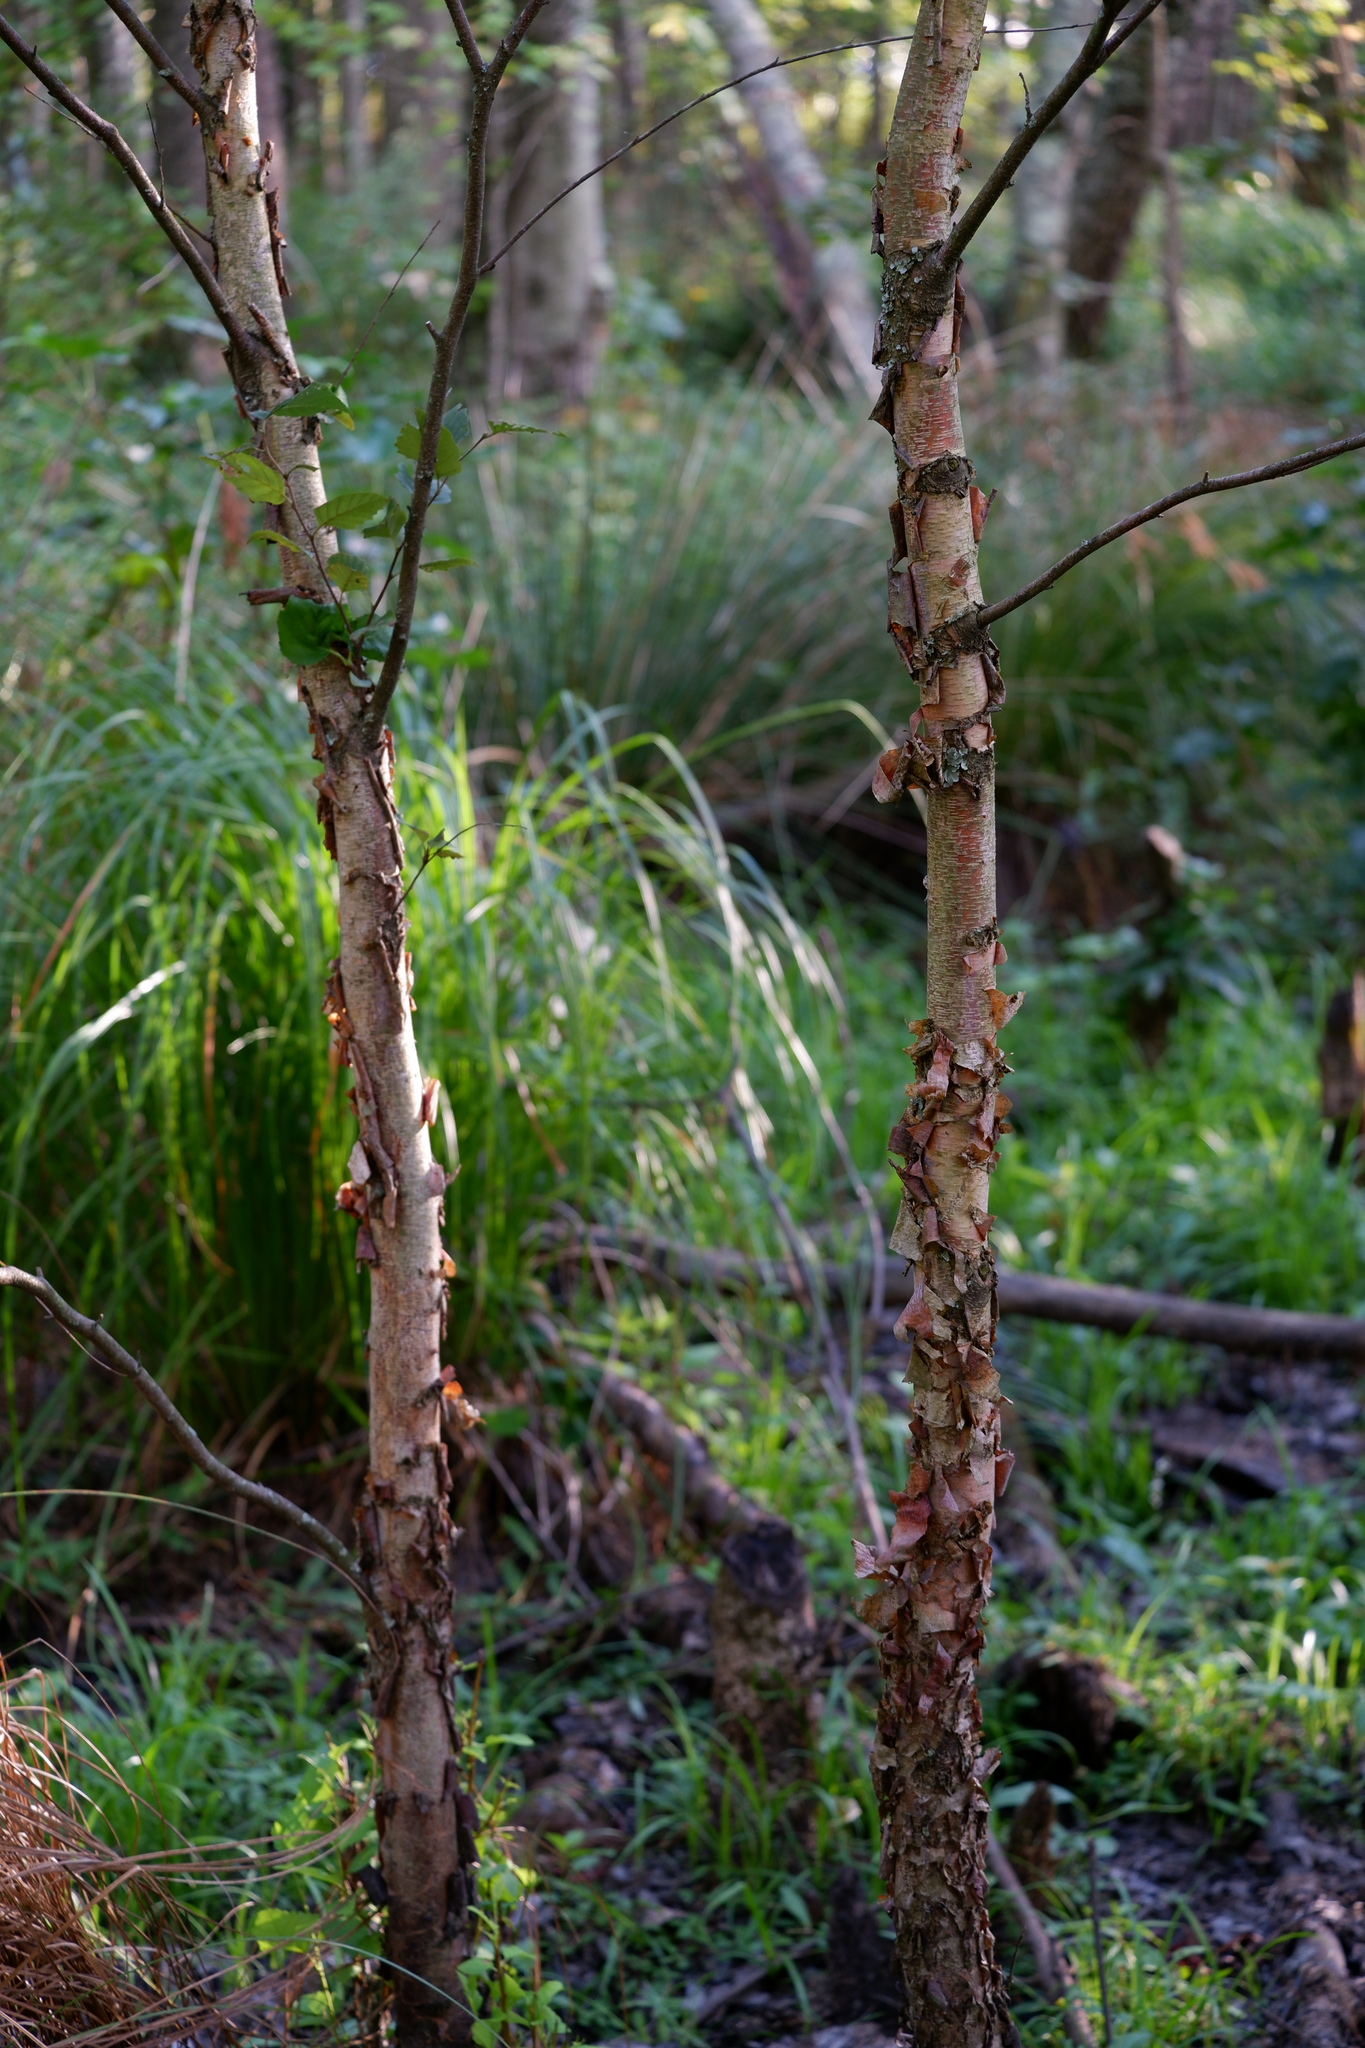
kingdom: Plantae
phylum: Tracheophyta
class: Magnoliopsida
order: Fagales
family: Betulaceae
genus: Betula
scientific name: Betula nigra
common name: Black birch
